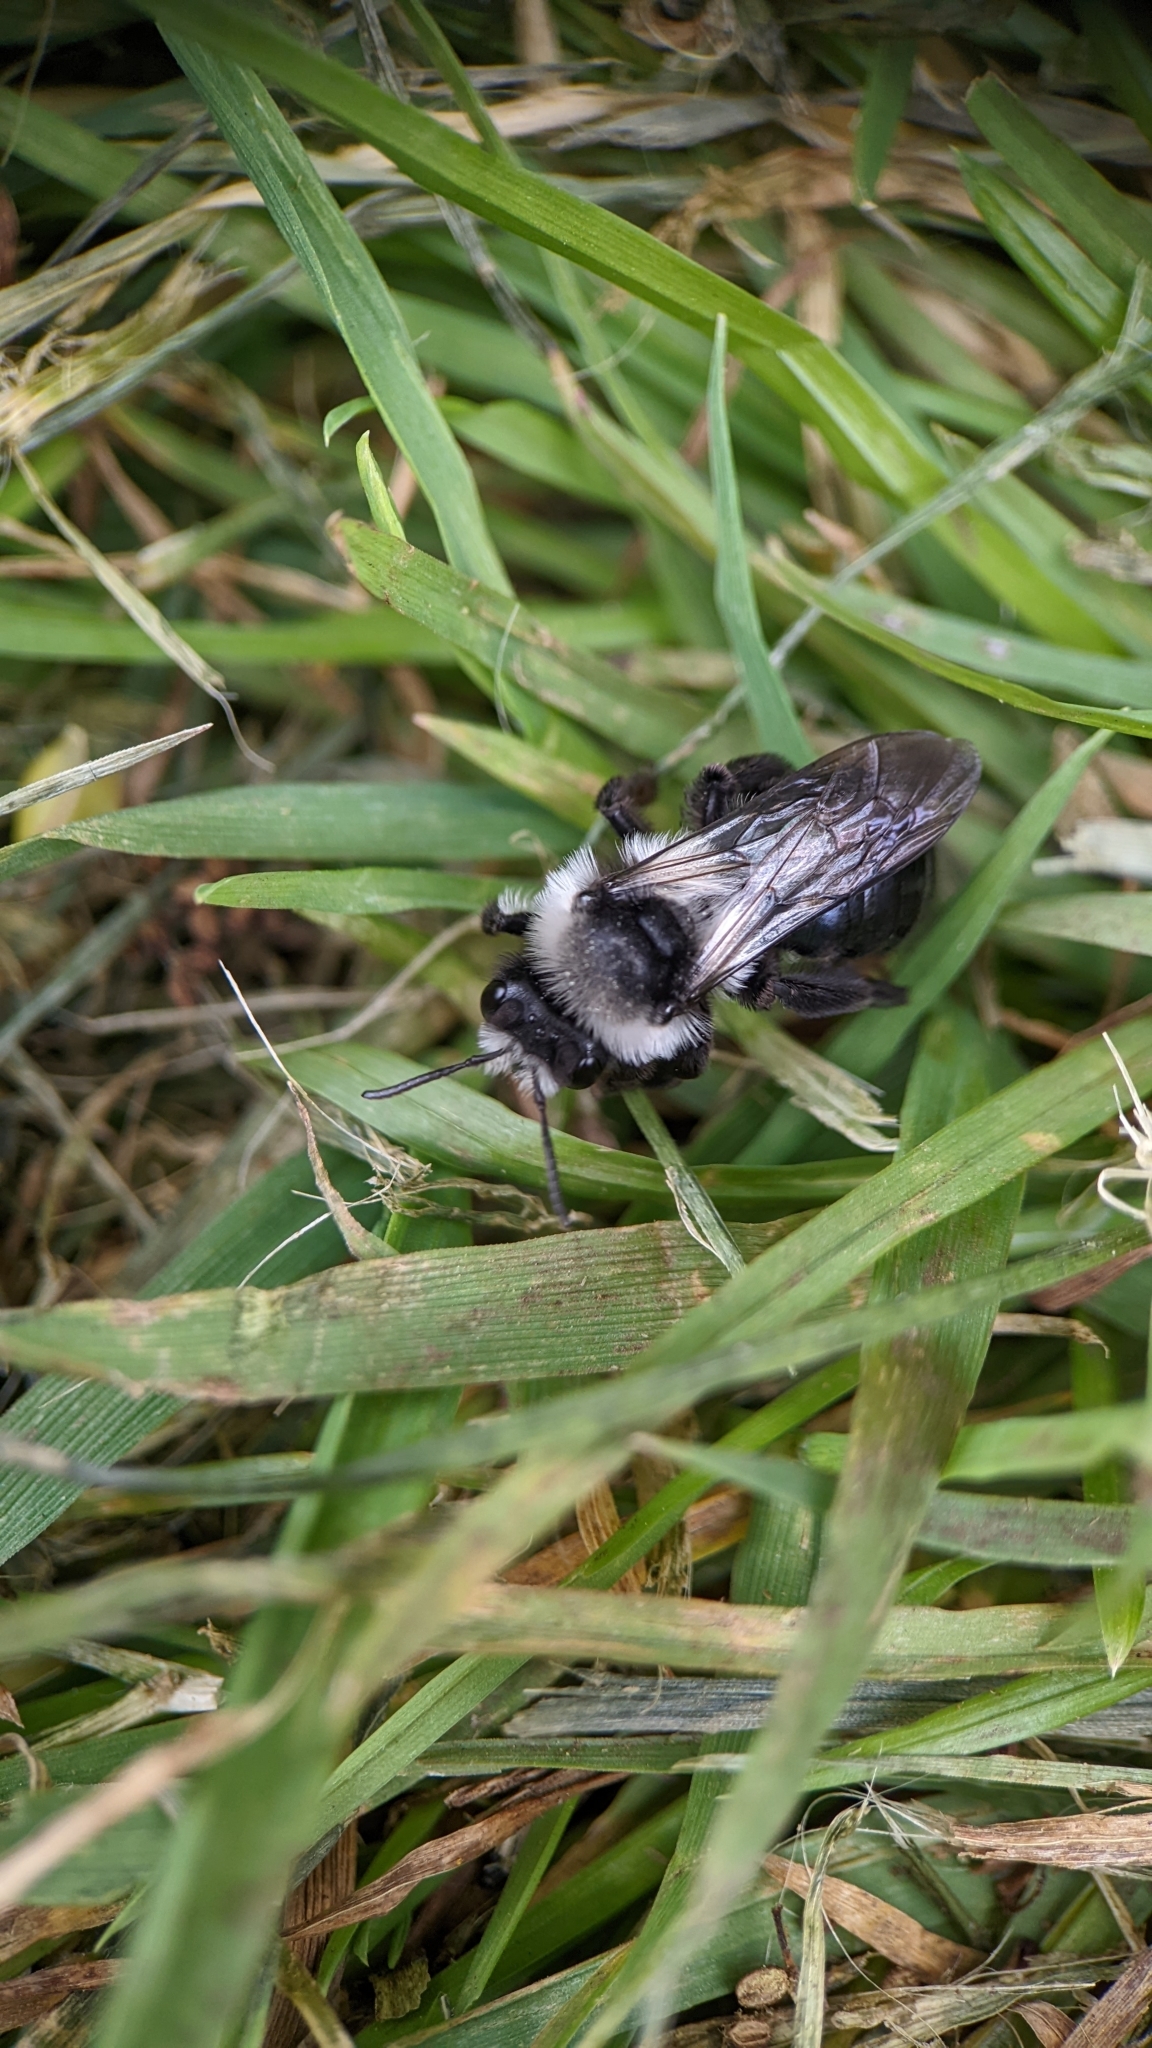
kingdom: Animalia
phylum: Arthropoda
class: Insecta
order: Hymenoptera
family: Andrenidae
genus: Andrena
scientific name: Andrena cineraria
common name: Ashy mining bee
